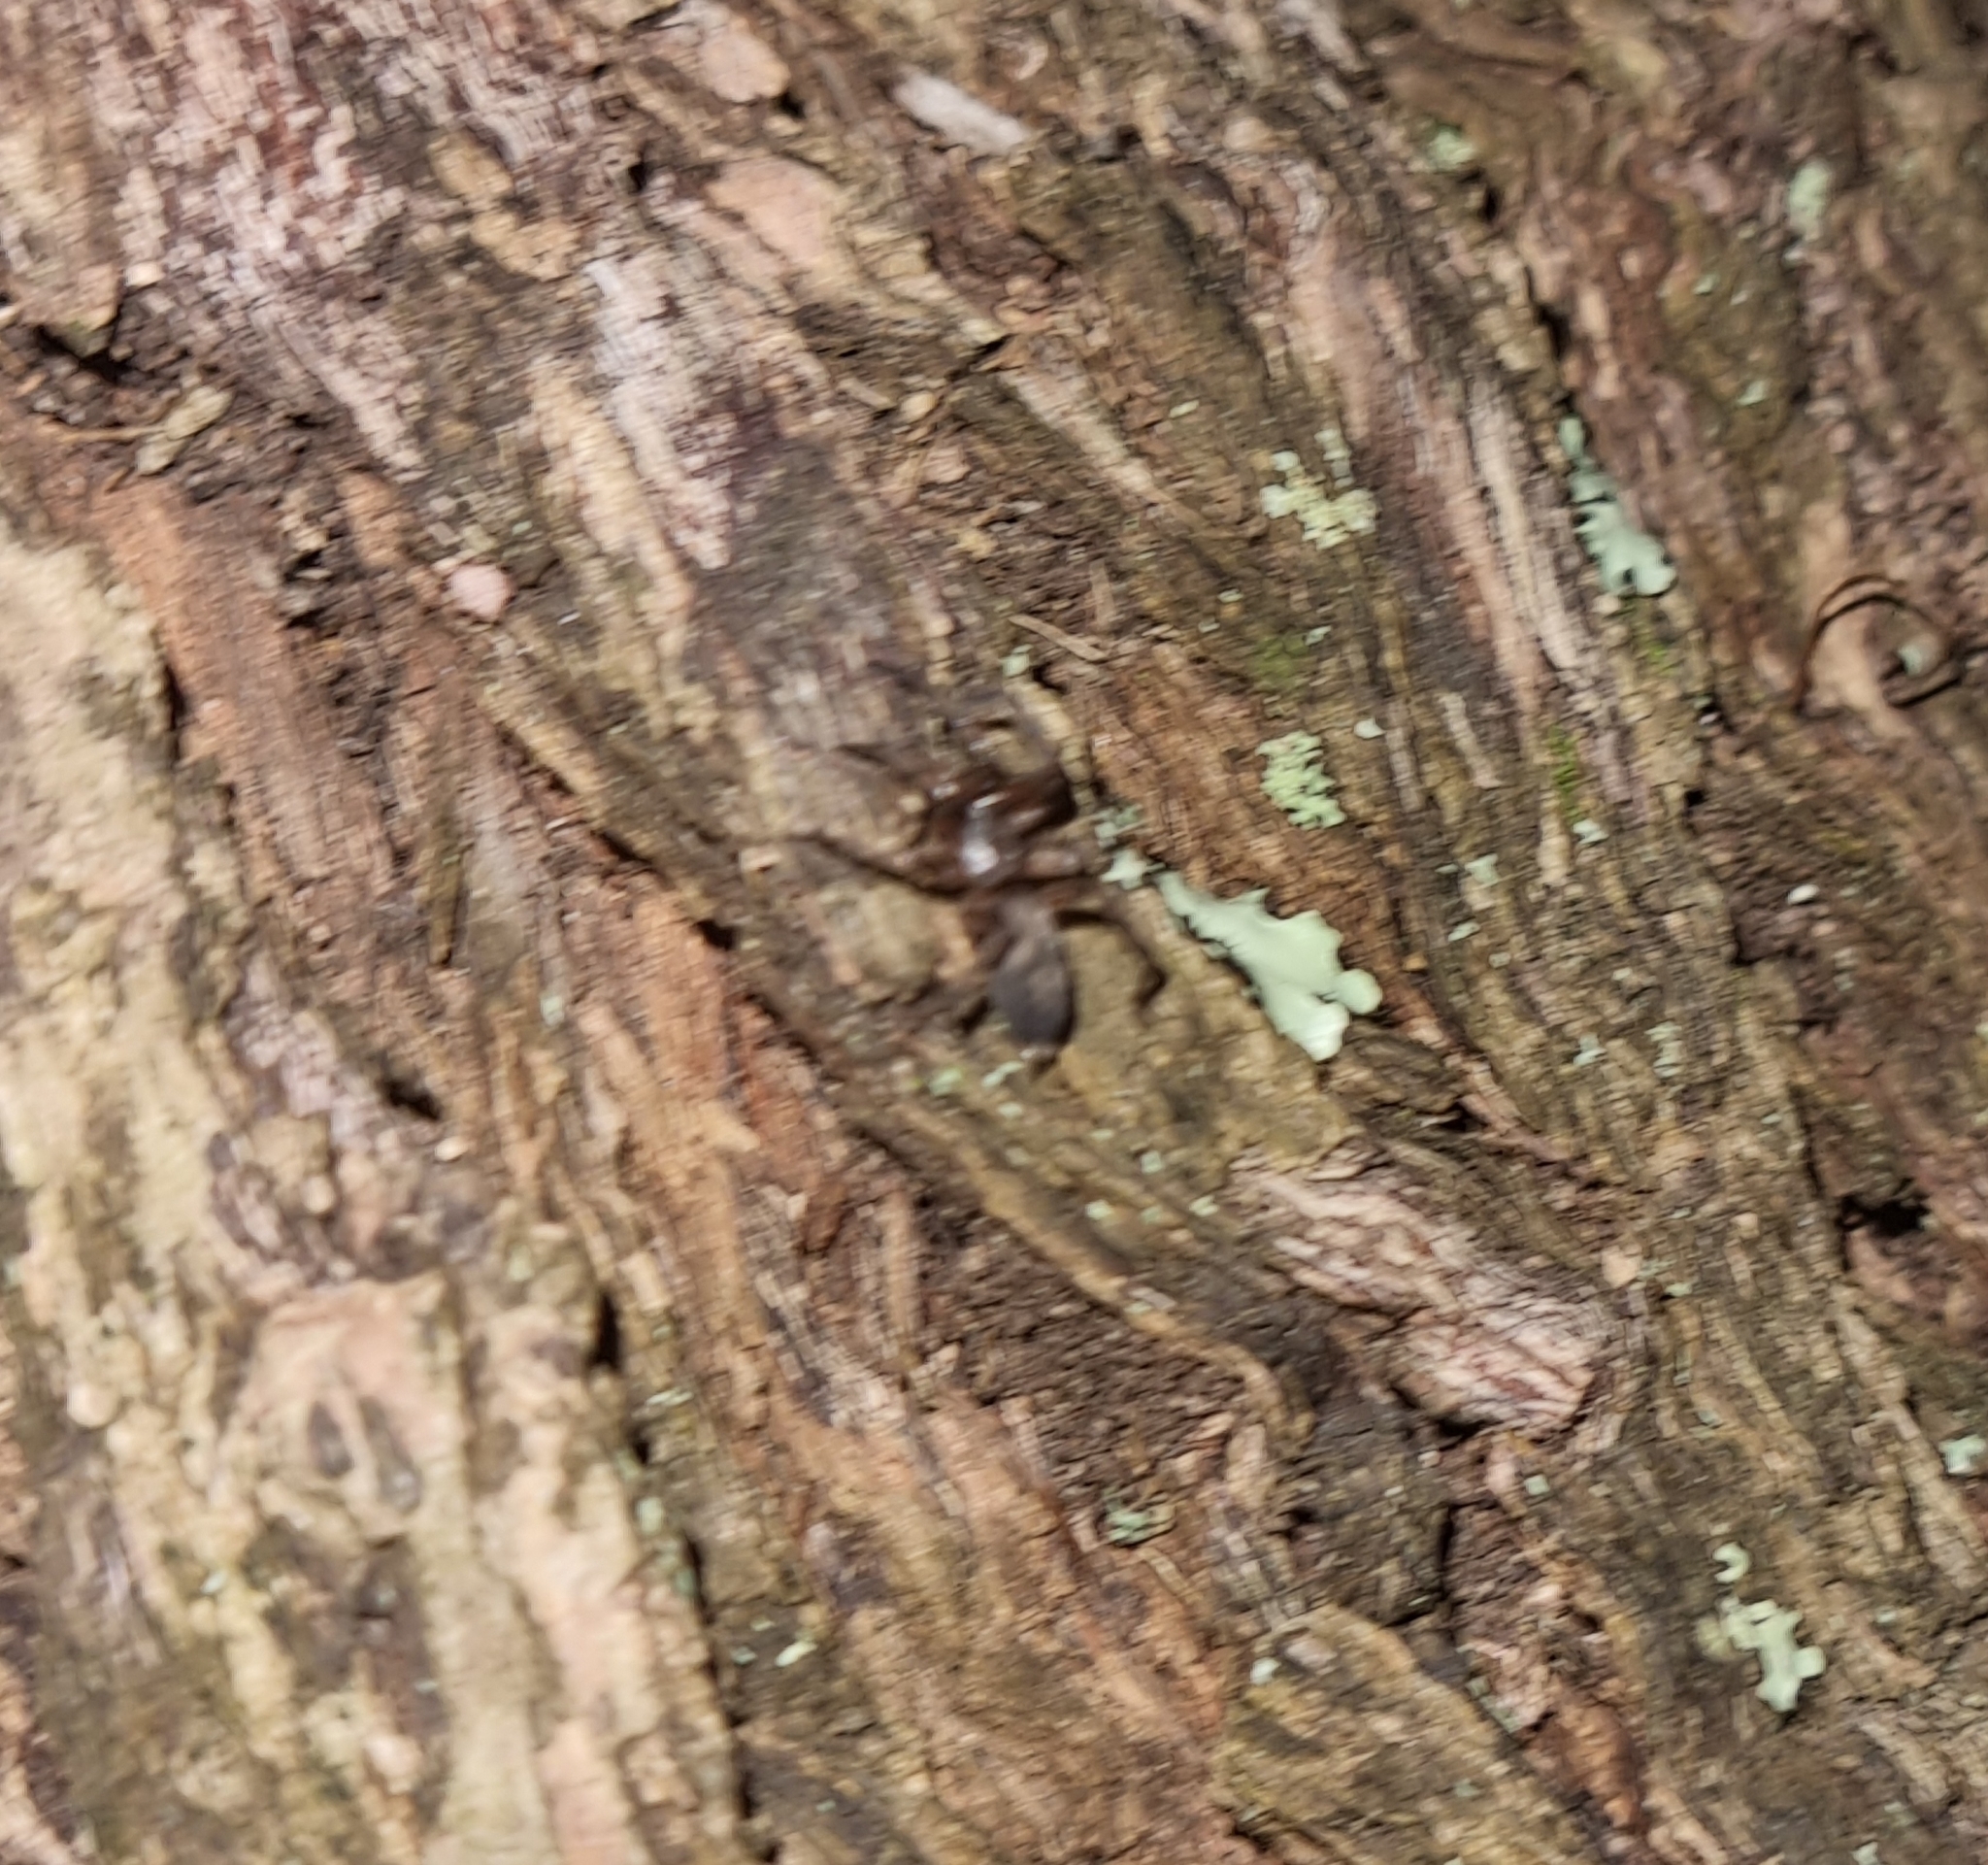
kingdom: Animalia
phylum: Arthropoda
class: Arachnida
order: Araneae
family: Gnaphosidae
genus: Intruda
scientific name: Intruda signata
